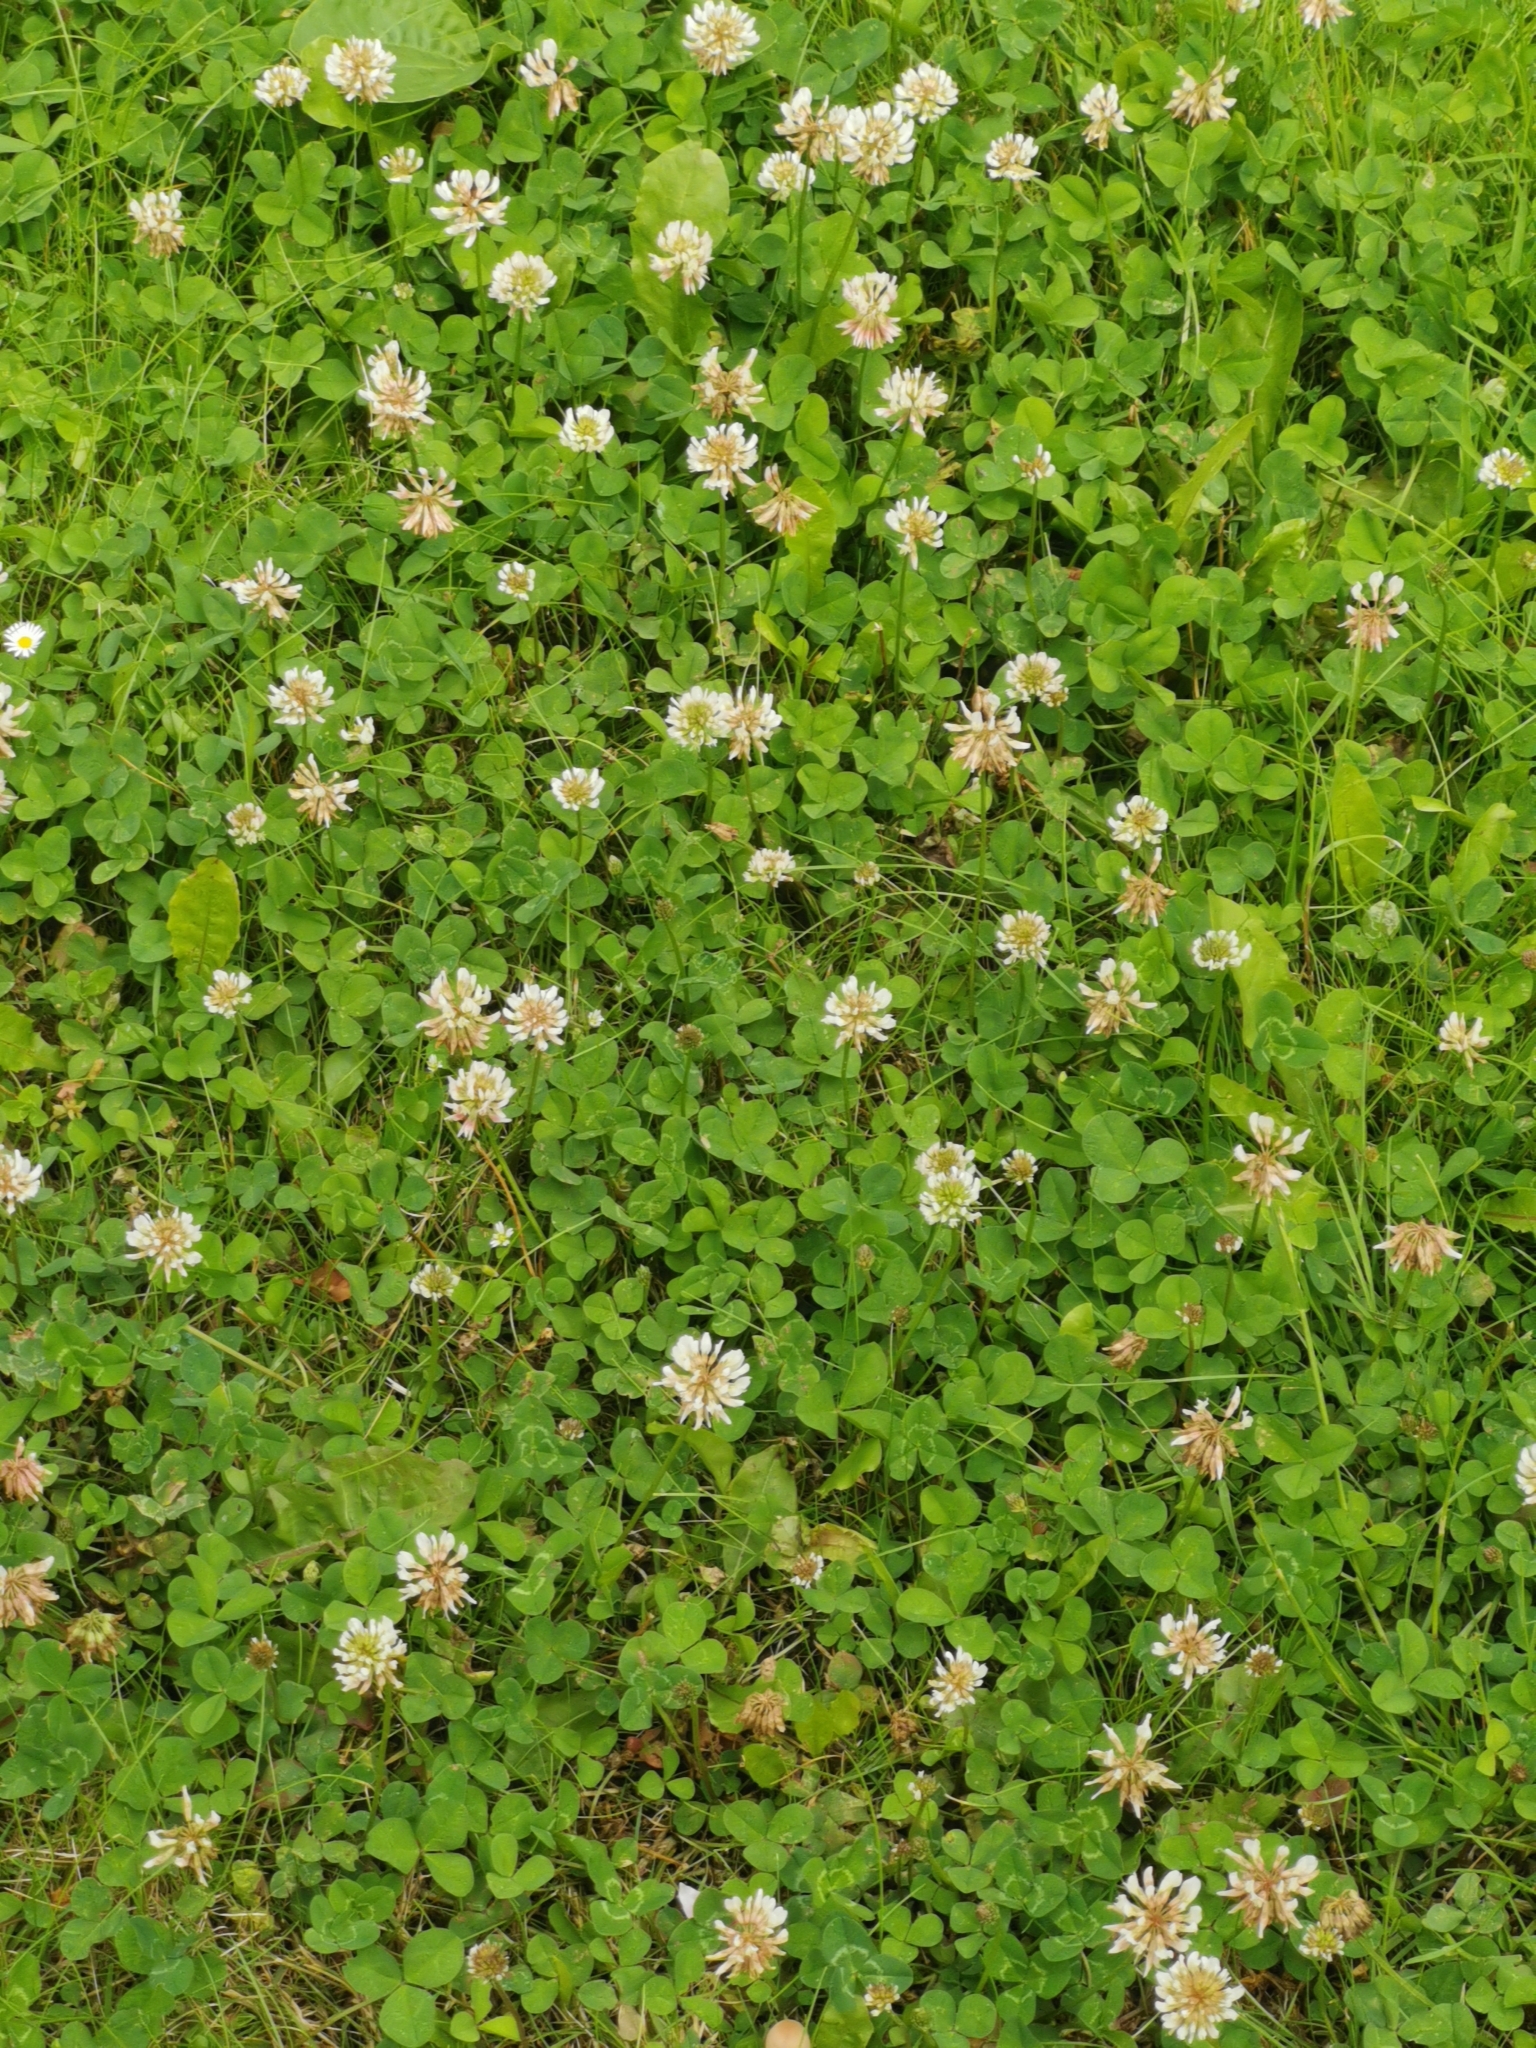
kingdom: Plantae
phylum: Tracheophyta
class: Magnoliopsida
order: Fabales
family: Fabaceae
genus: Trifolium
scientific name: Trifolium repens
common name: White clover
